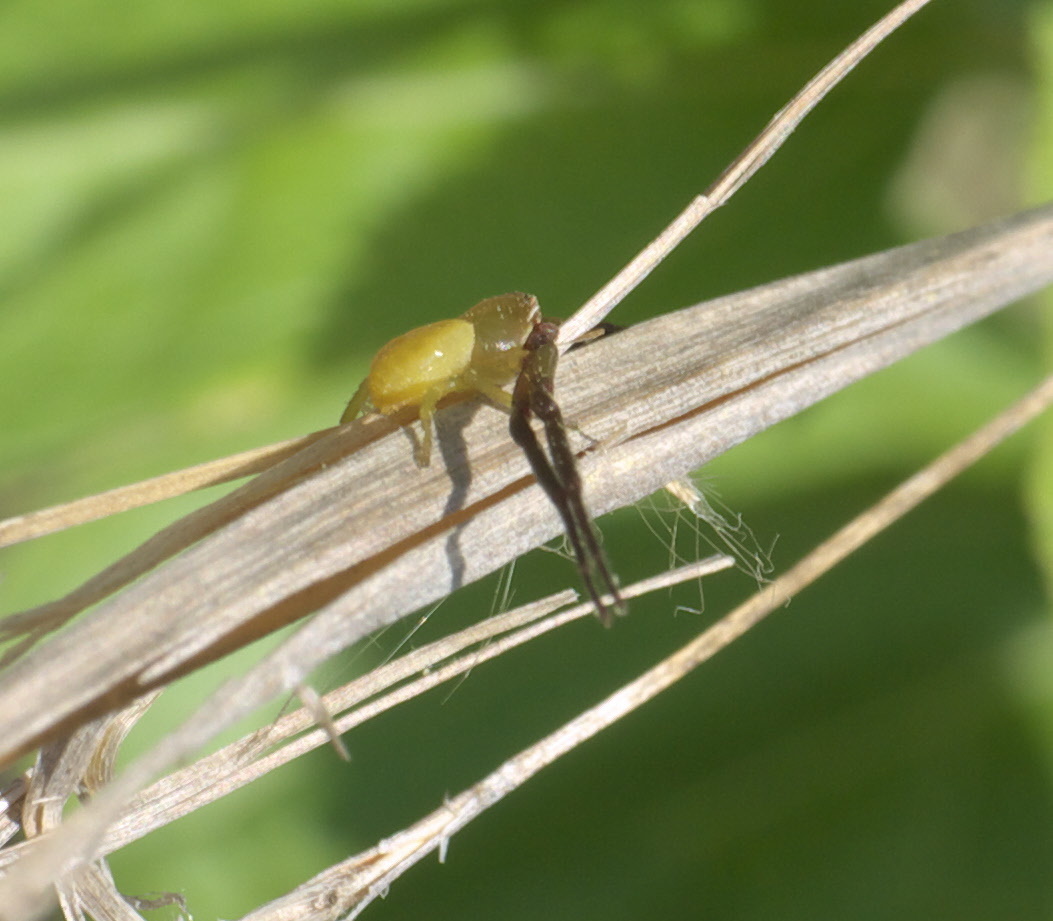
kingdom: Animalia
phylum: Arthropoda
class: Arachnida
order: Araneae
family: Thomisidae
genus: Misumenoides
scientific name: Misumenoides formosipes
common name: White-banded crab spider
